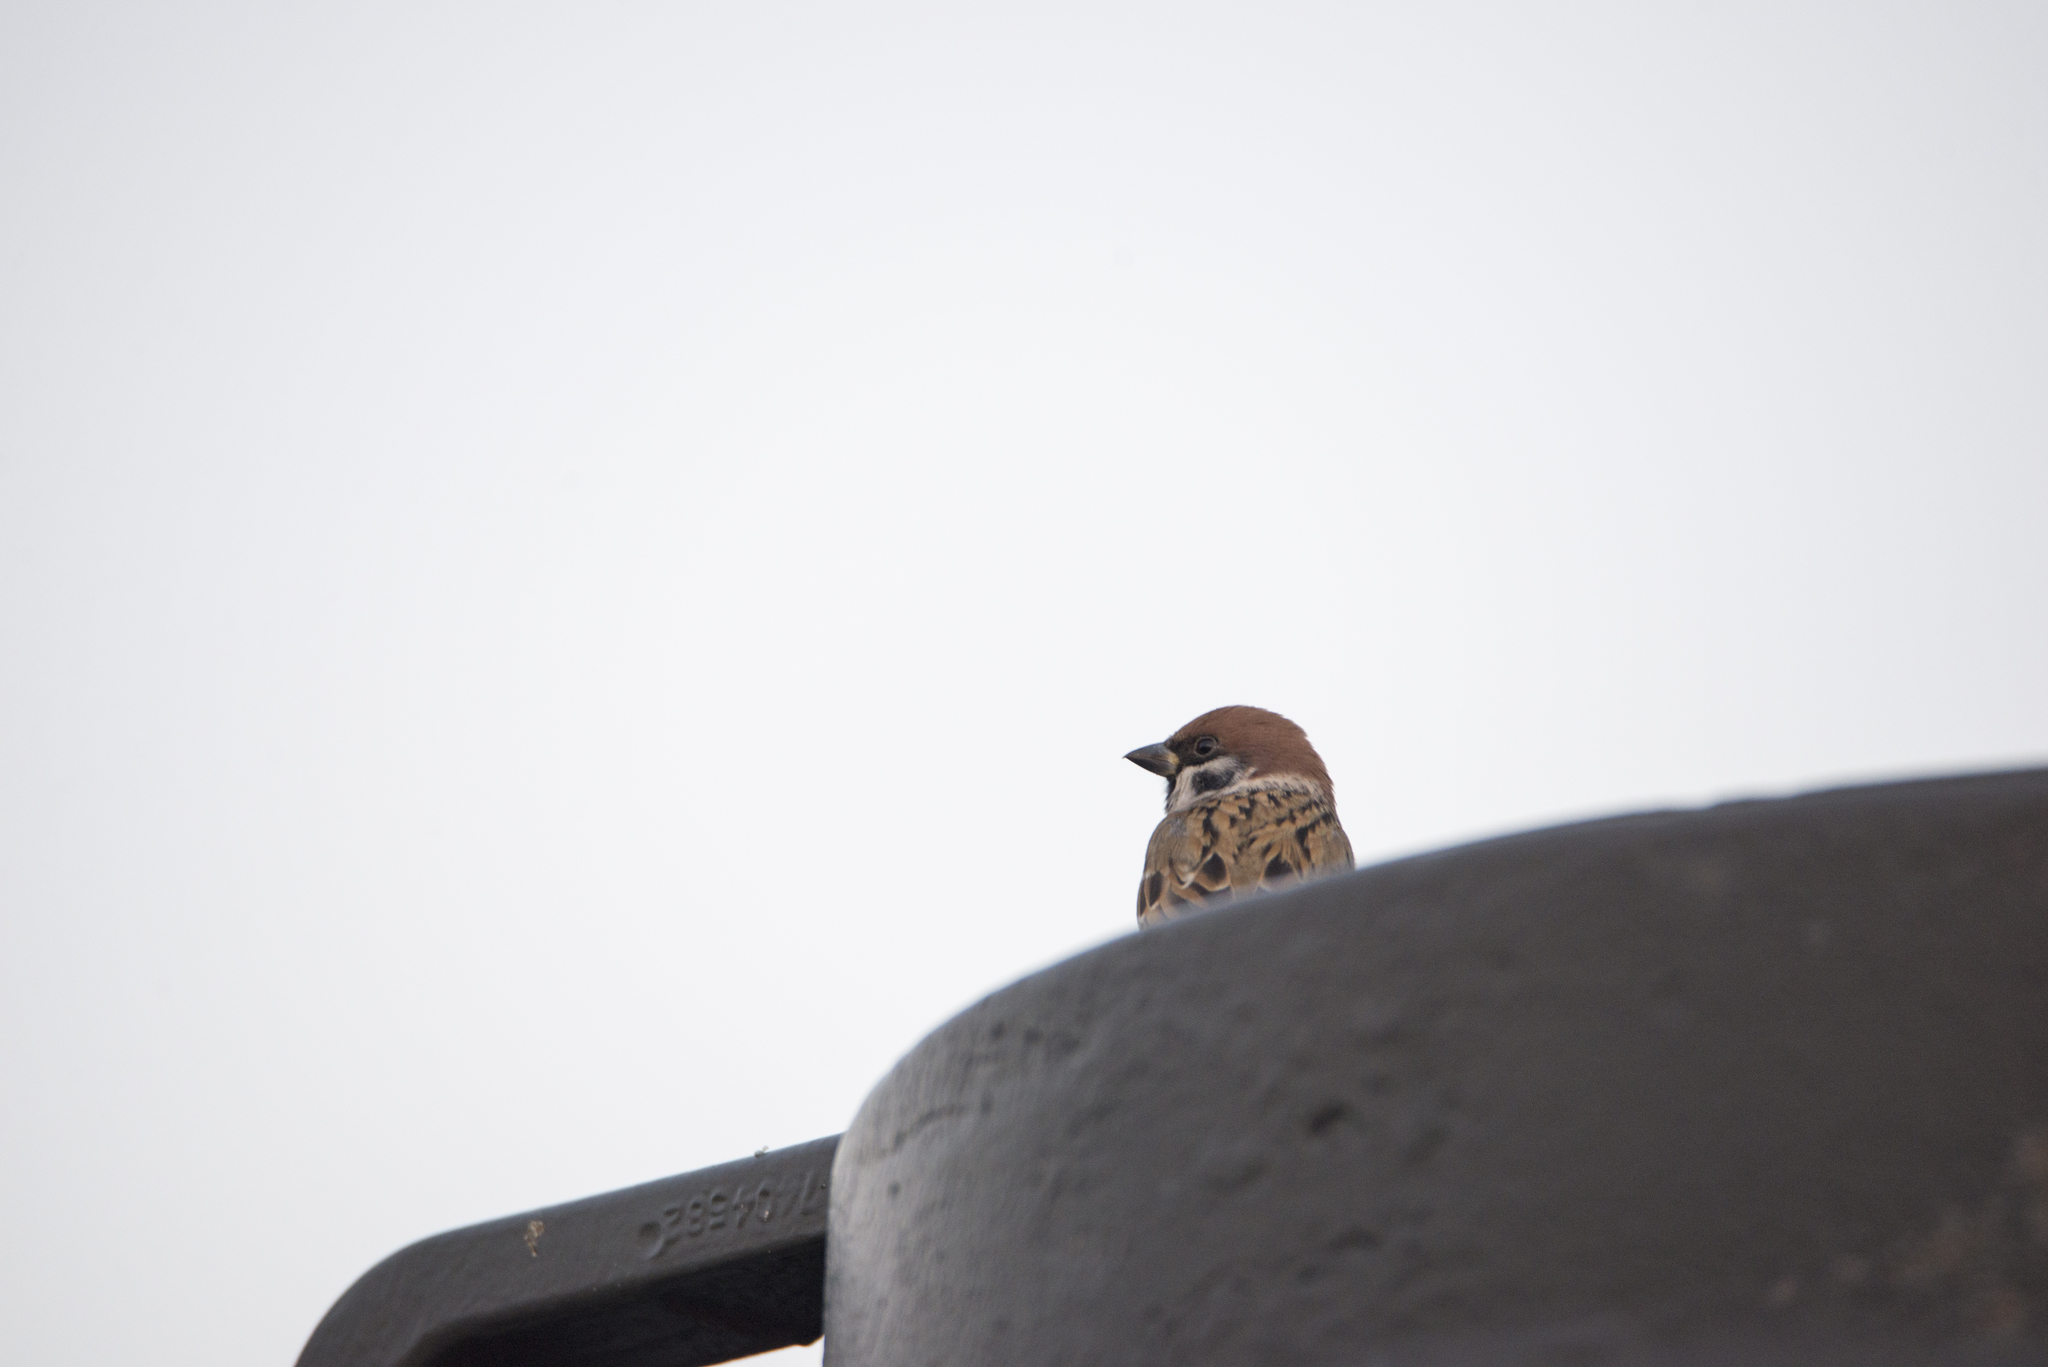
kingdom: Animalia
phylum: Chordata
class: Aves
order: Passeriformes
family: Passeridae
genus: Passer
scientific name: Passer montanus
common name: Eurasian tree sparrow
